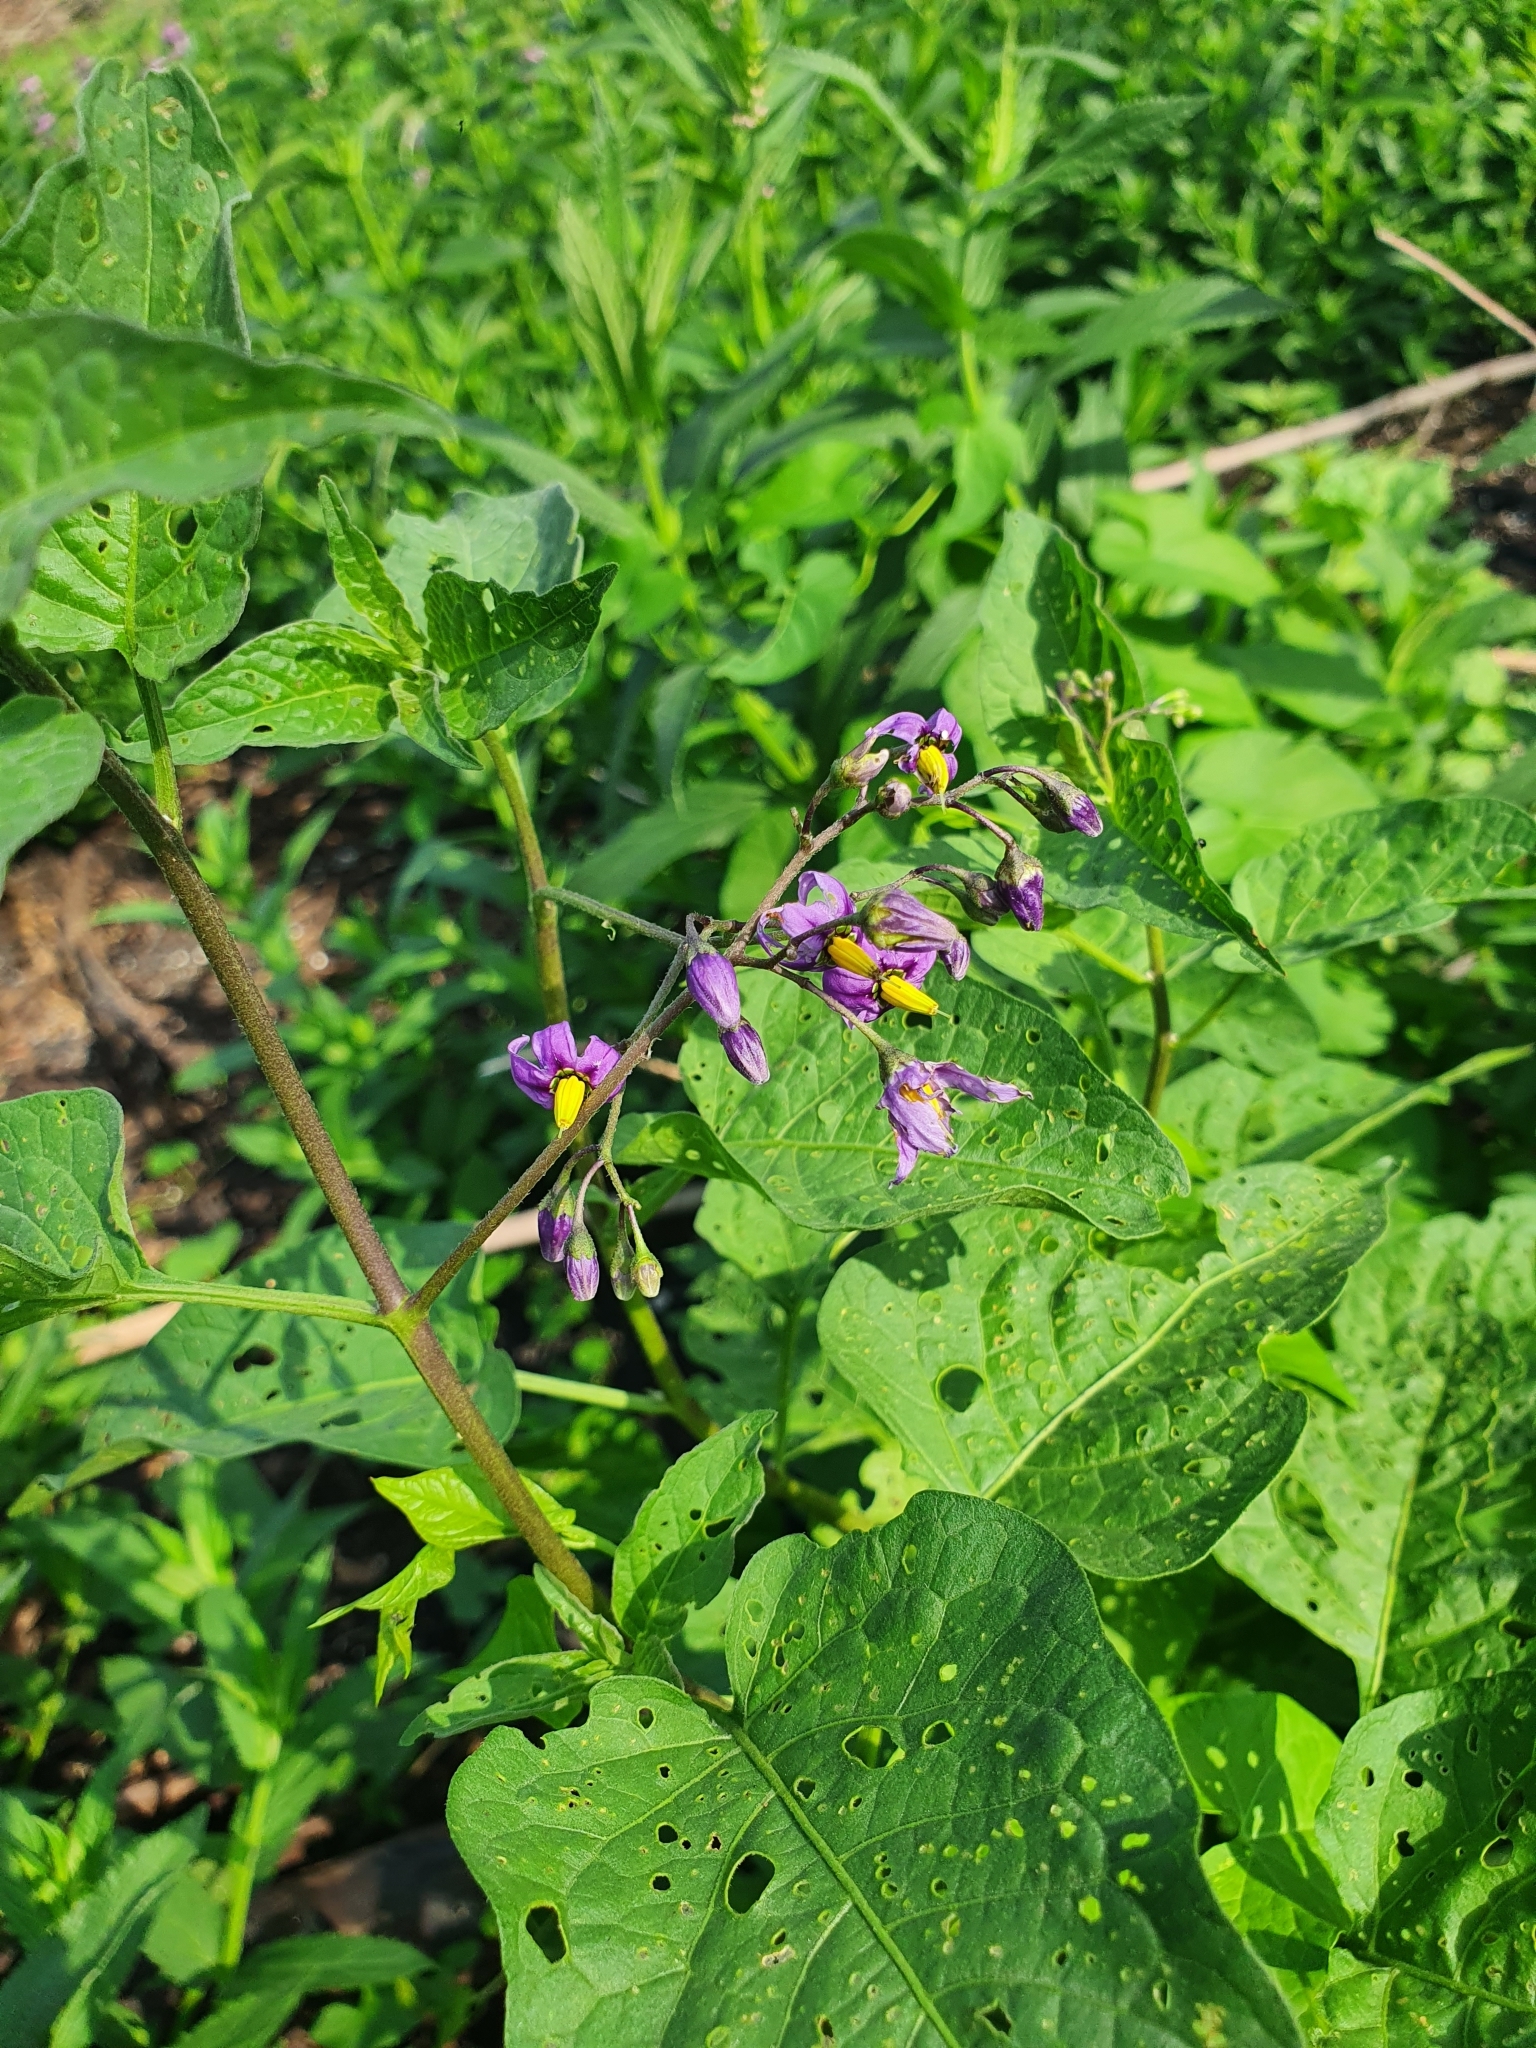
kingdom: Plantae
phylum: Tracheophyta
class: Magnoliopsida
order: Solanales
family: Solanaceae
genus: Solanum
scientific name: Solanum dulcamara
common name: Climbing nightshade
